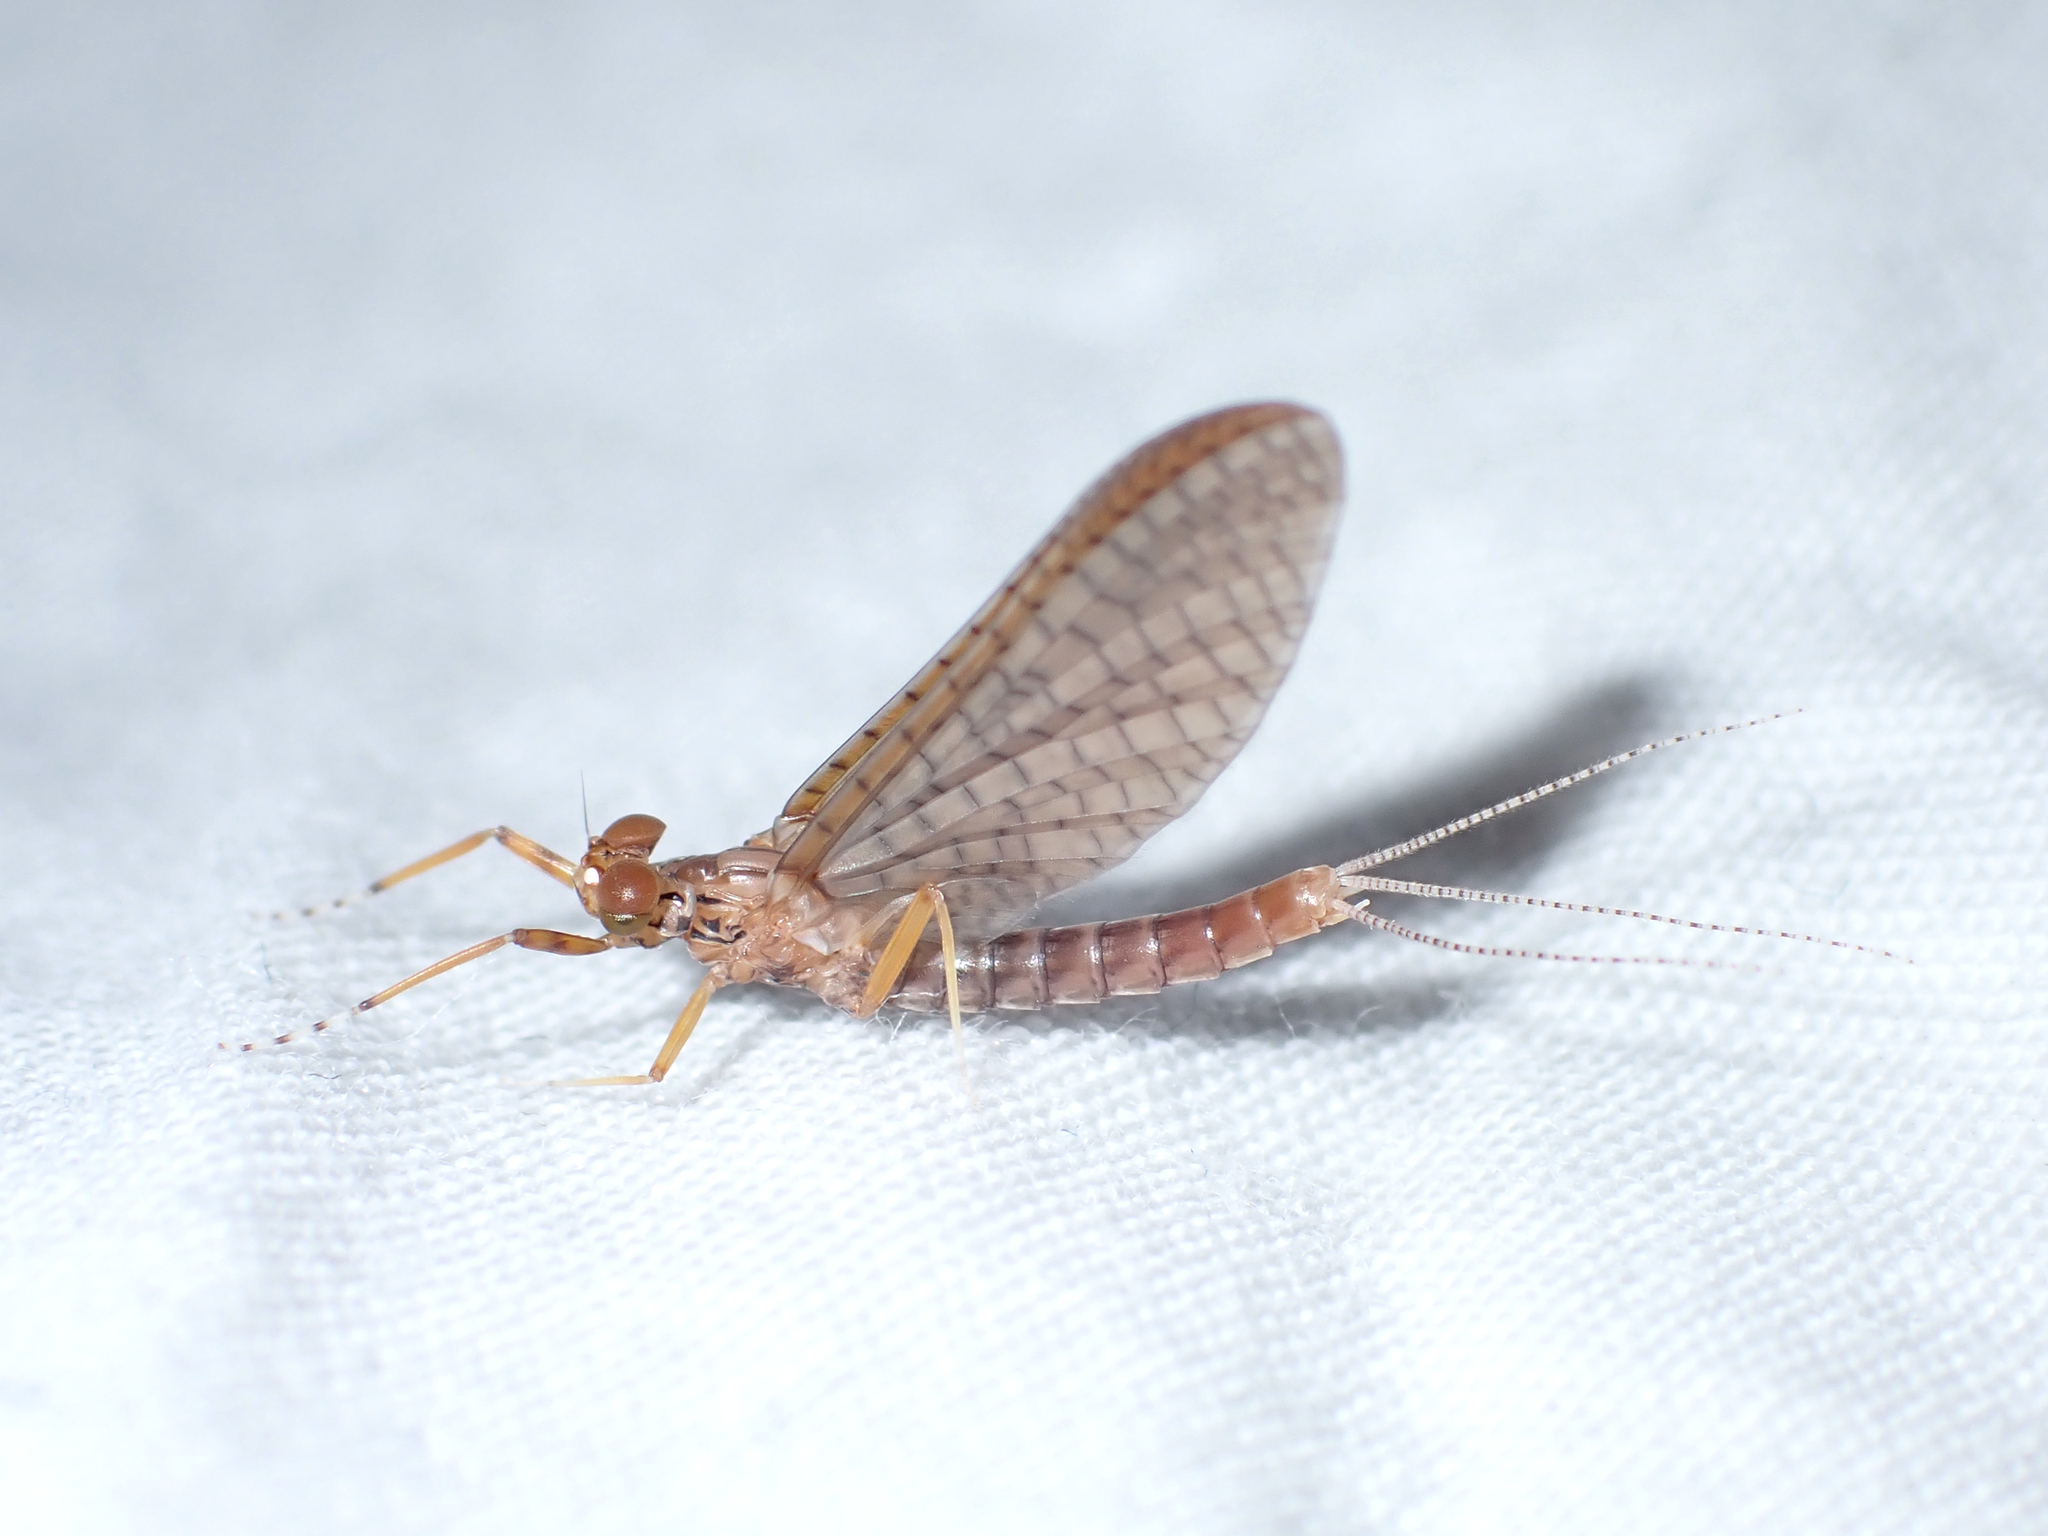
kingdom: Animalia
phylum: Arthropoda
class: Insecta
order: Ephemeroptera
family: Leptophlebiidae
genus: Acanthophlebia
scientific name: Acanthophlebia cruentata
